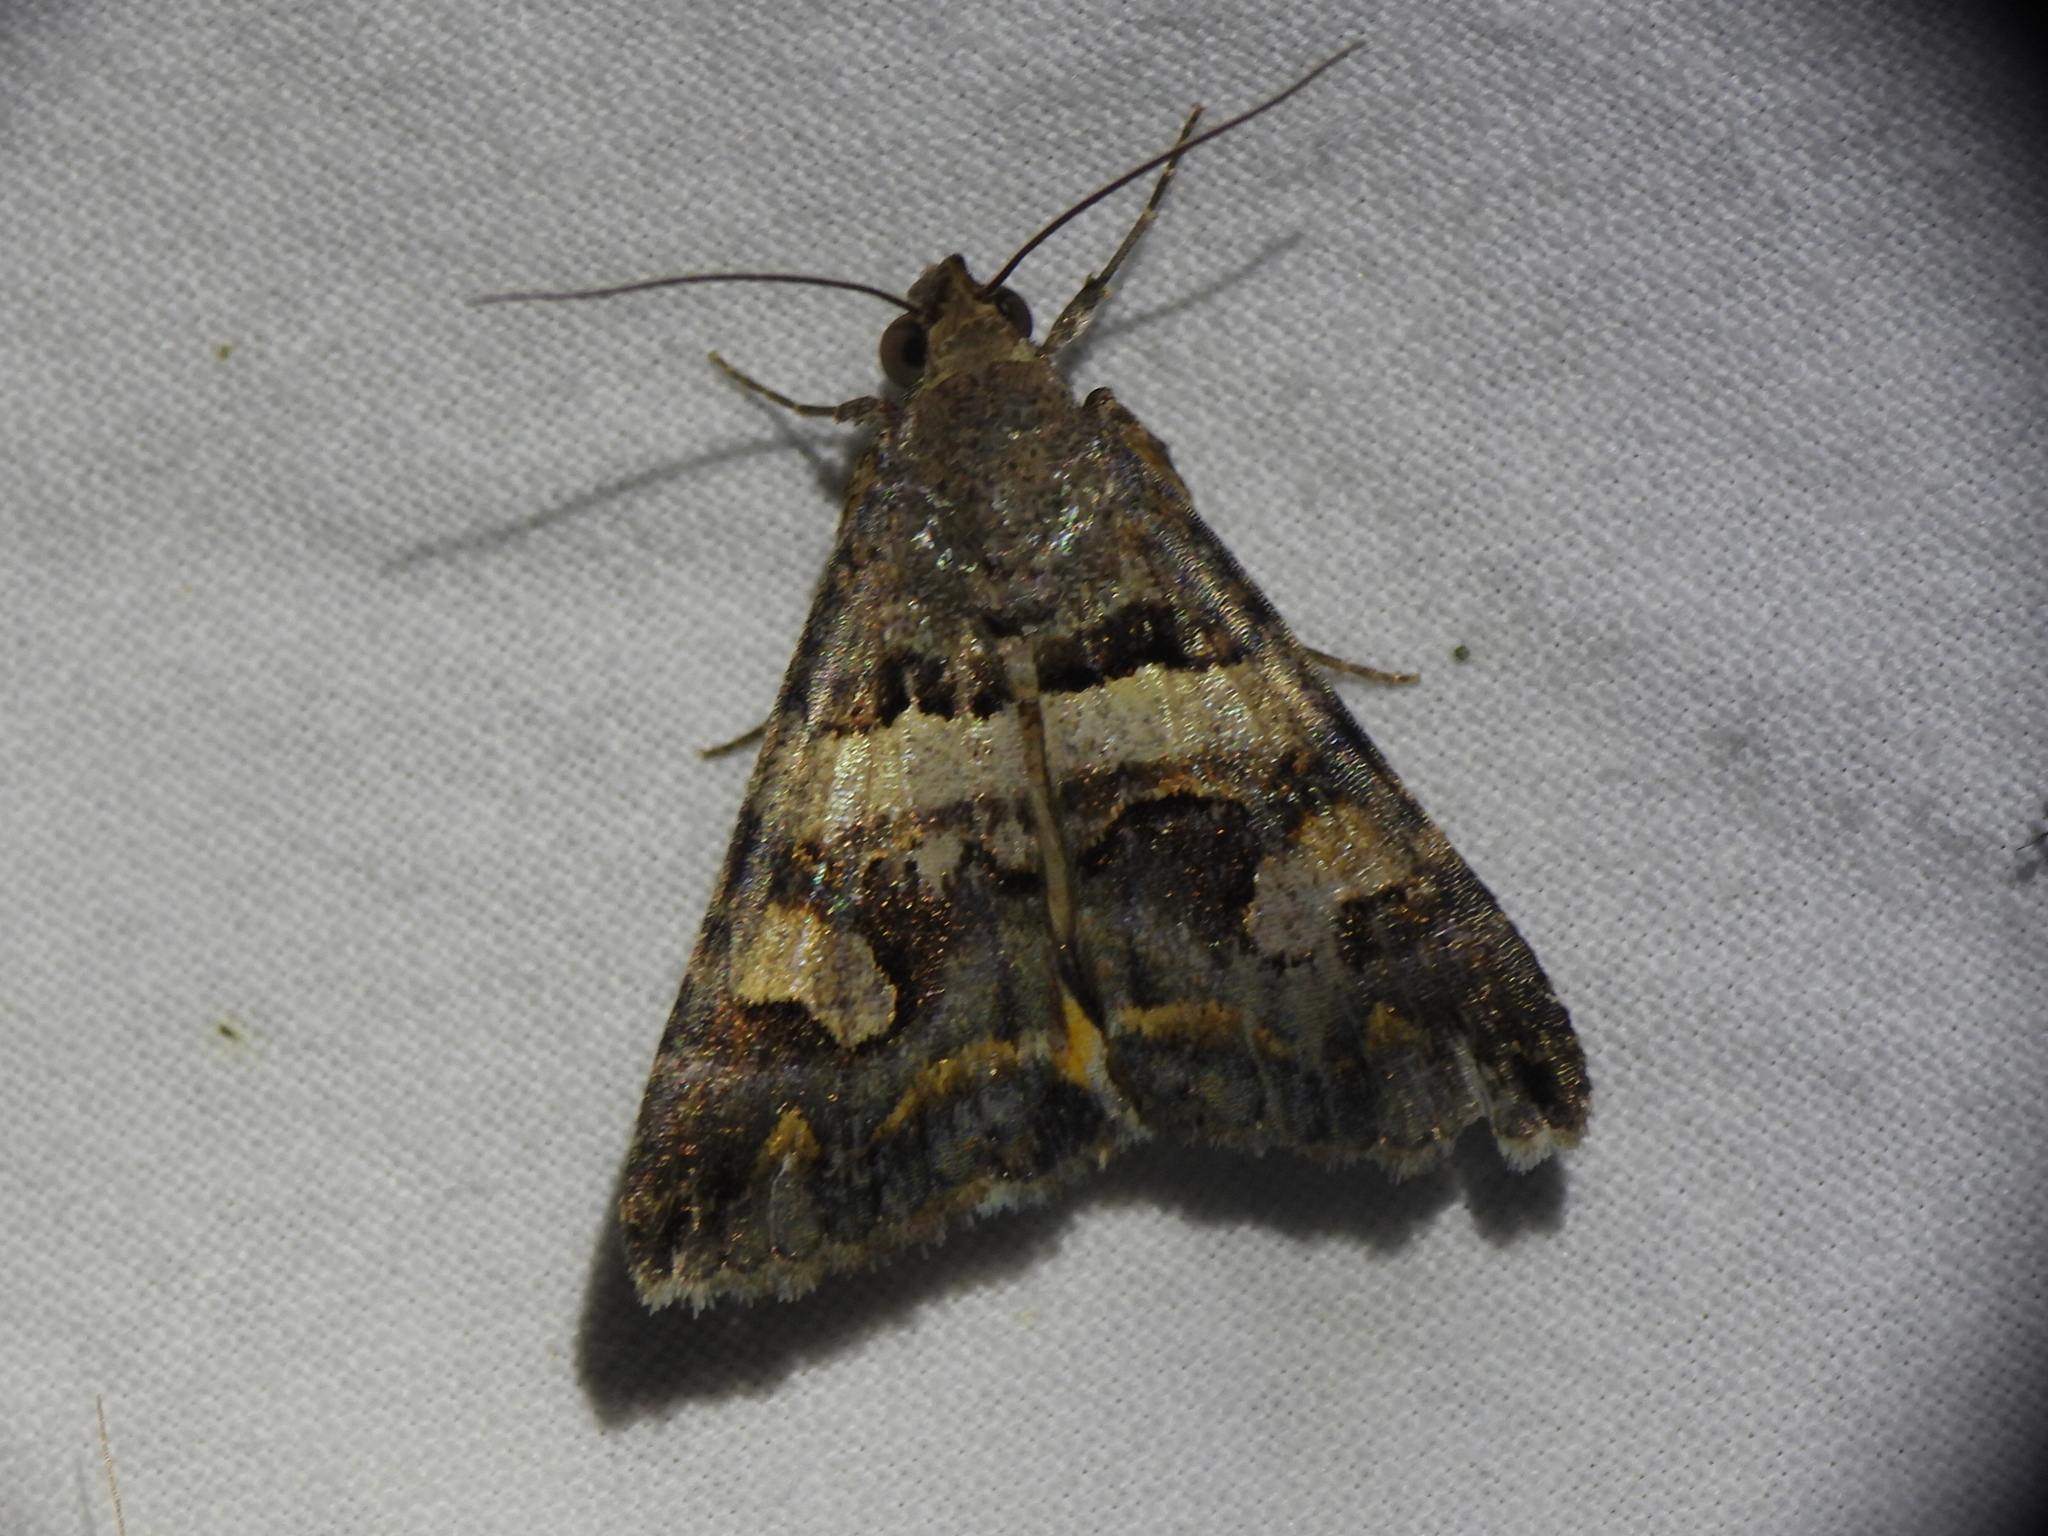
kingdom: Animalia
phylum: Arthropoda
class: Insecta
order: Lepidoptera
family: Erebidae
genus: Bulia
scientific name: Bulia deducta
